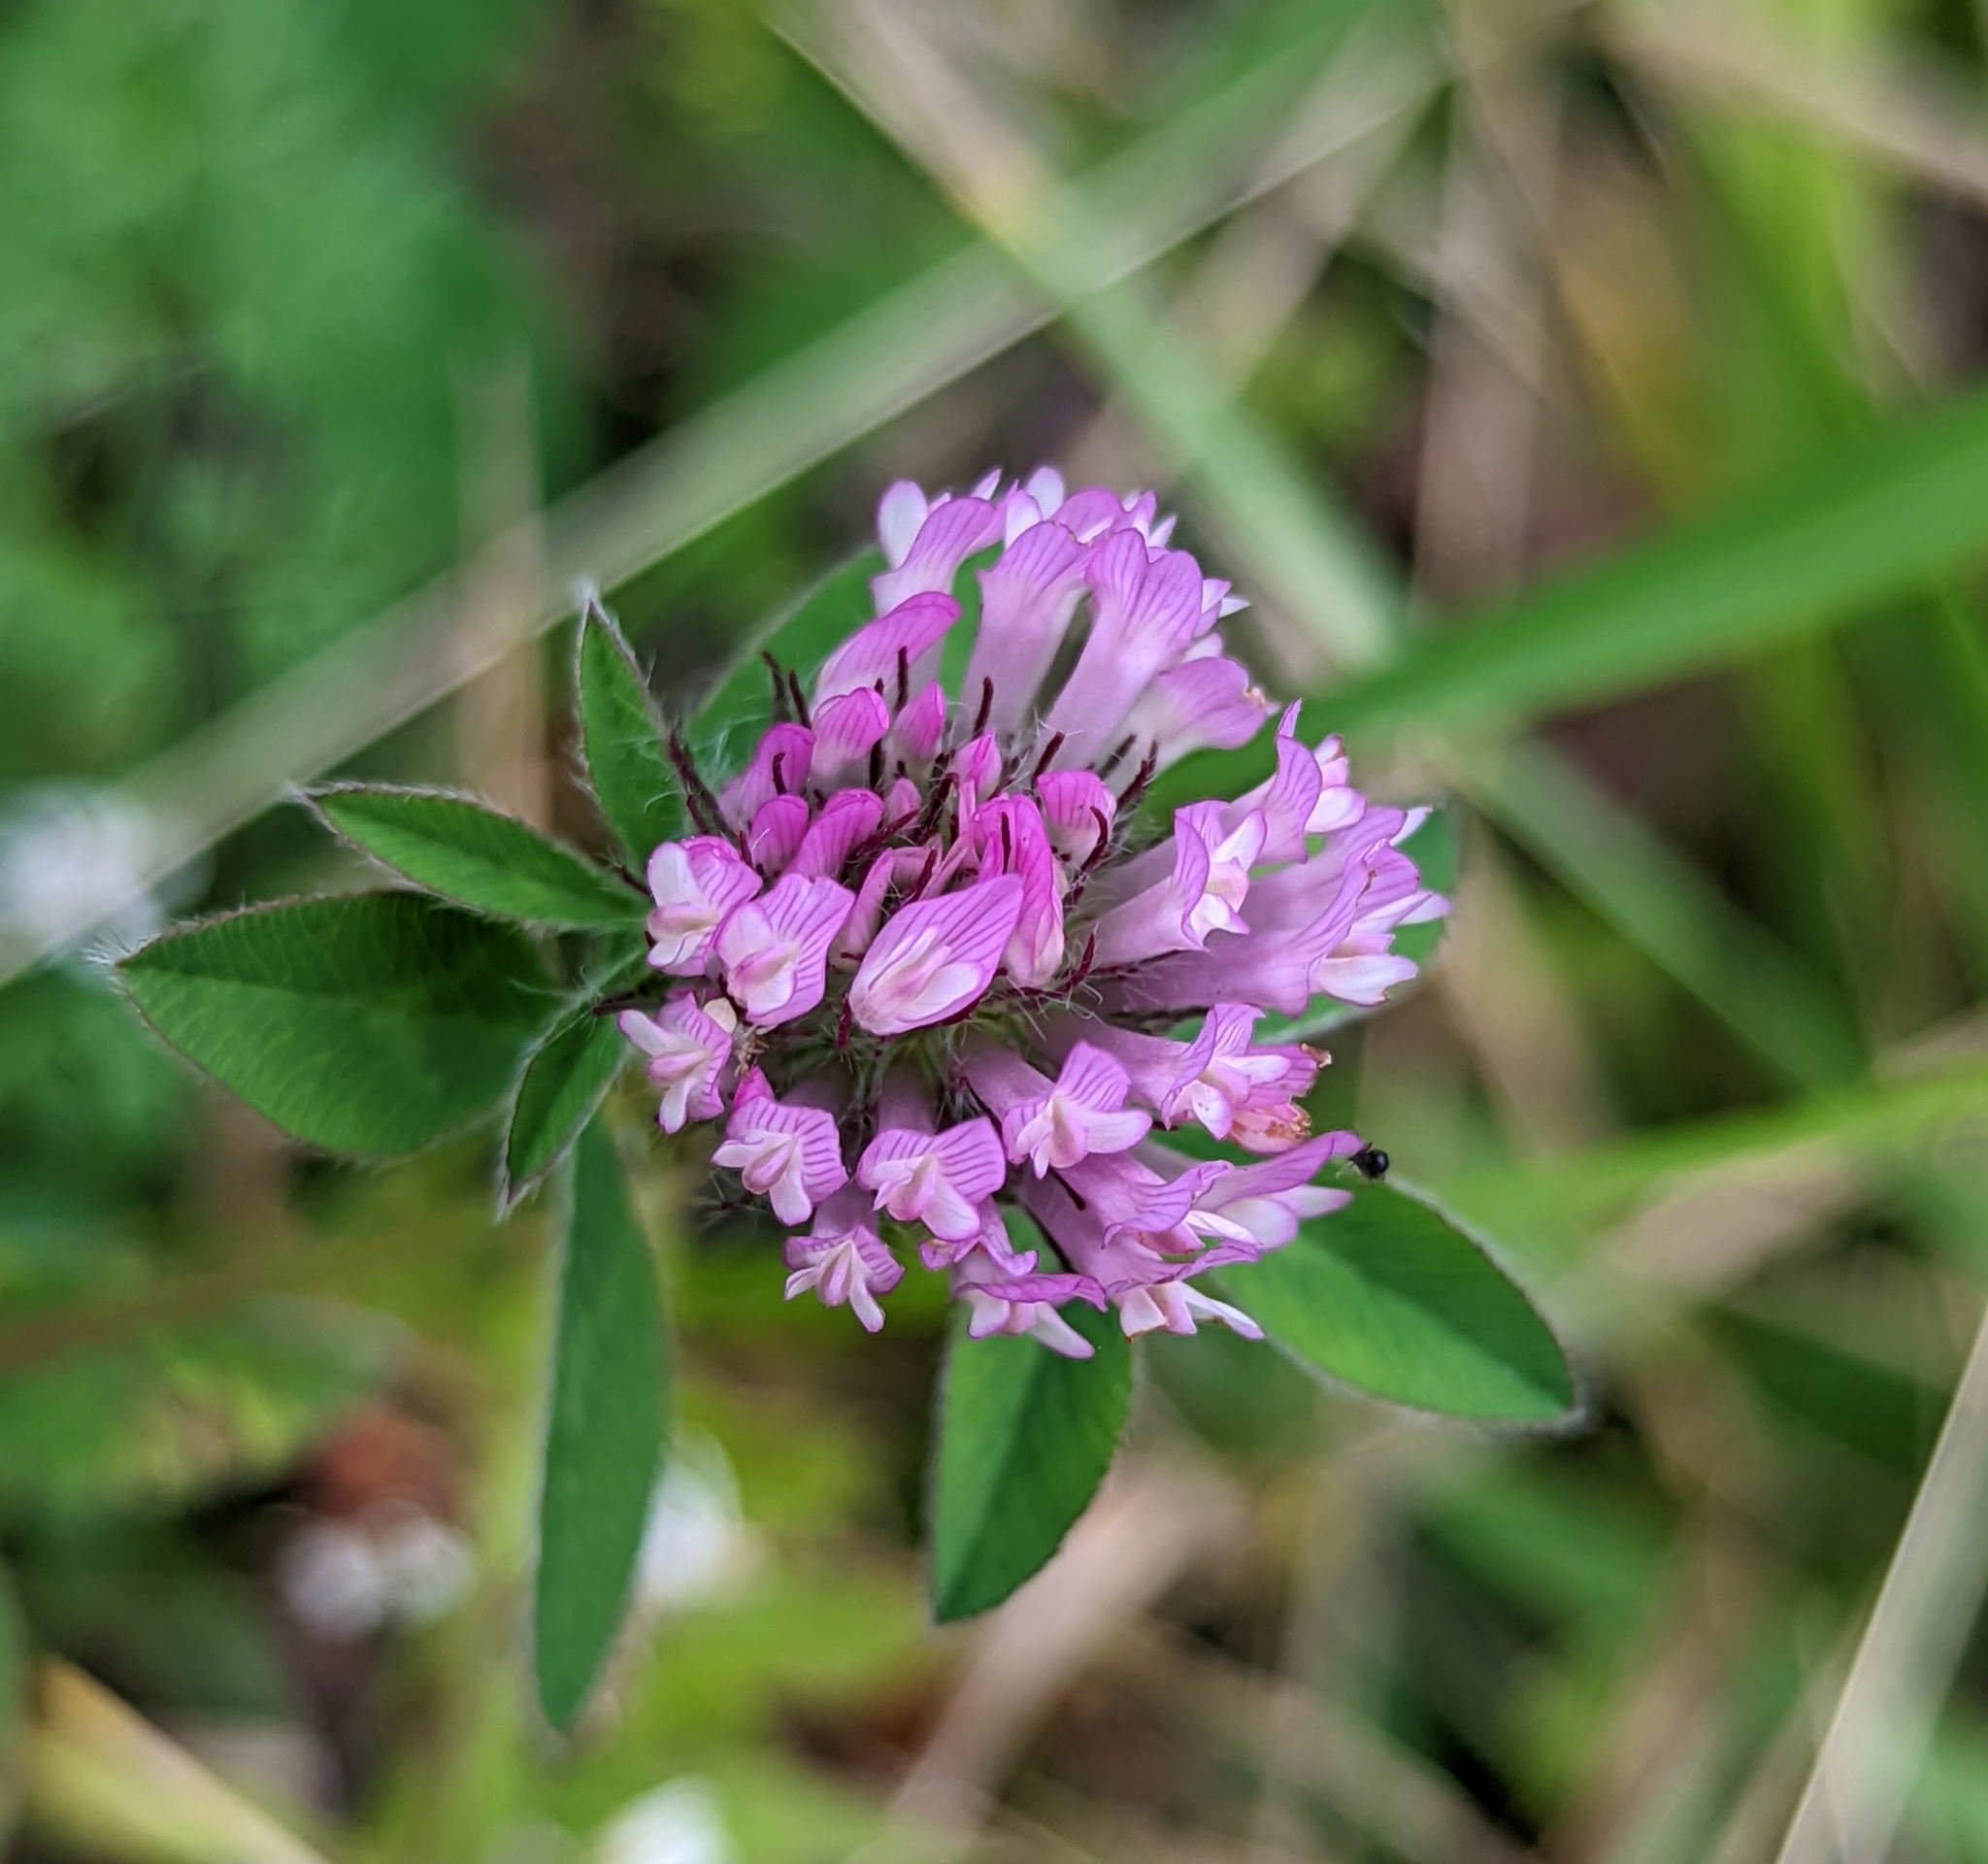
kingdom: Plantae
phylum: Tracheophyta
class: Magnoliopsida
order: Fabales
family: Fabaceae
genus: Trifolium
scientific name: Trifolium pratense
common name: Red clover
